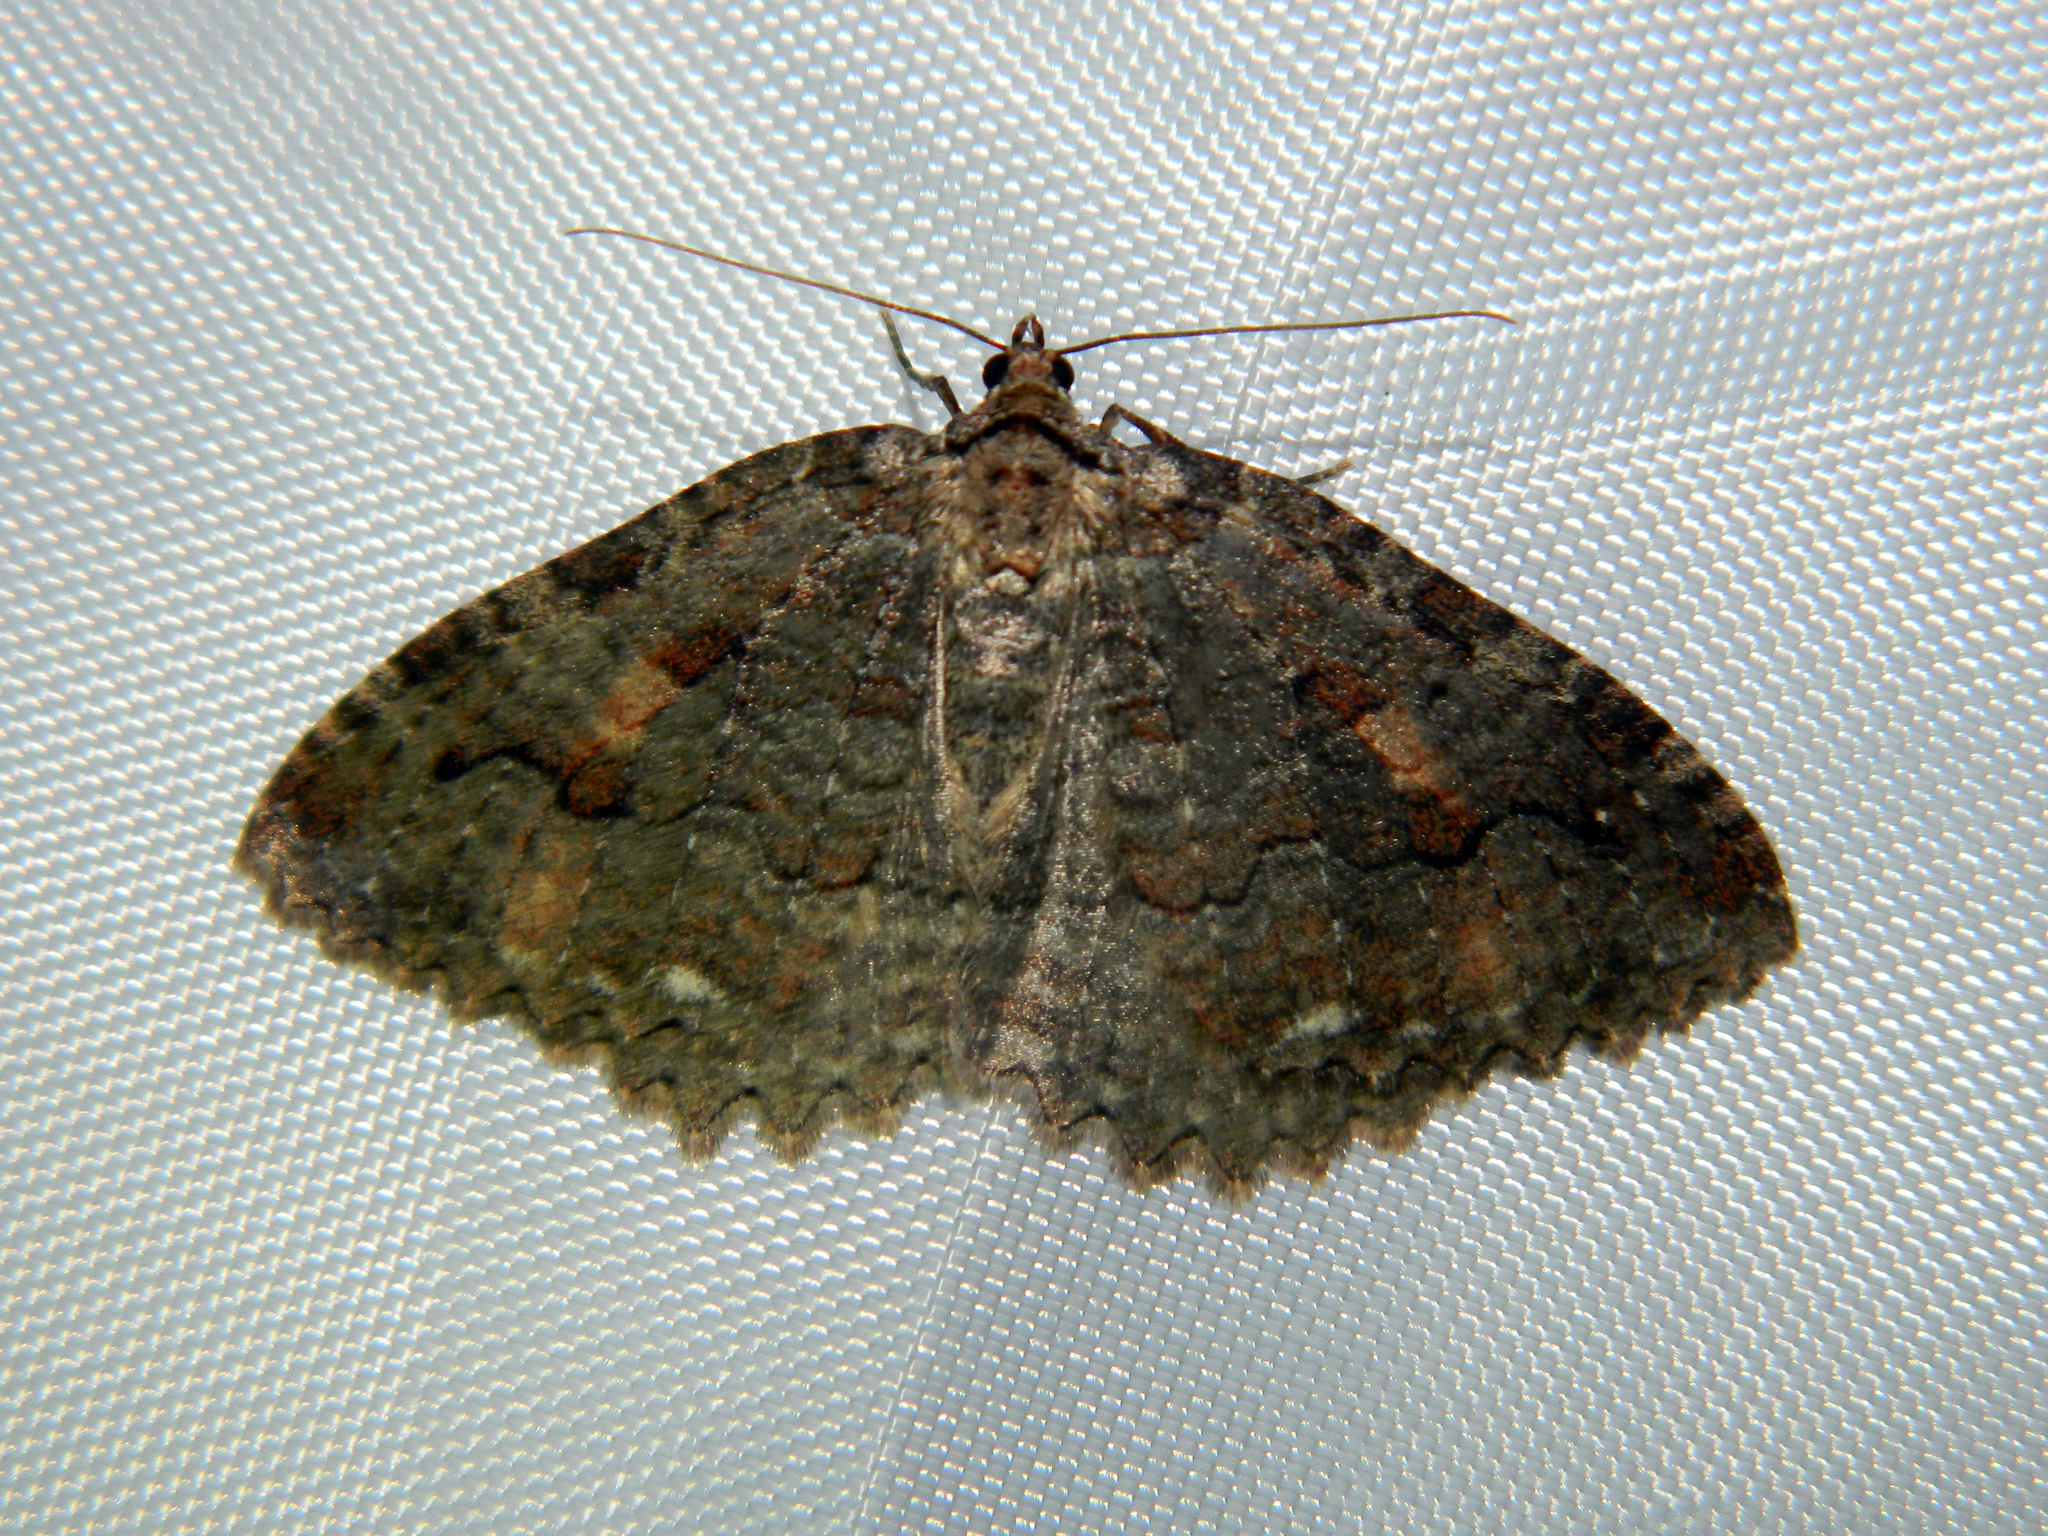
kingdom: Animalia
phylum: Arthropoda
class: Insecta
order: Lepidoptera
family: Geometridae
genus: Triphosa
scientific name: Triphosa haesitata
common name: Tissue moth
